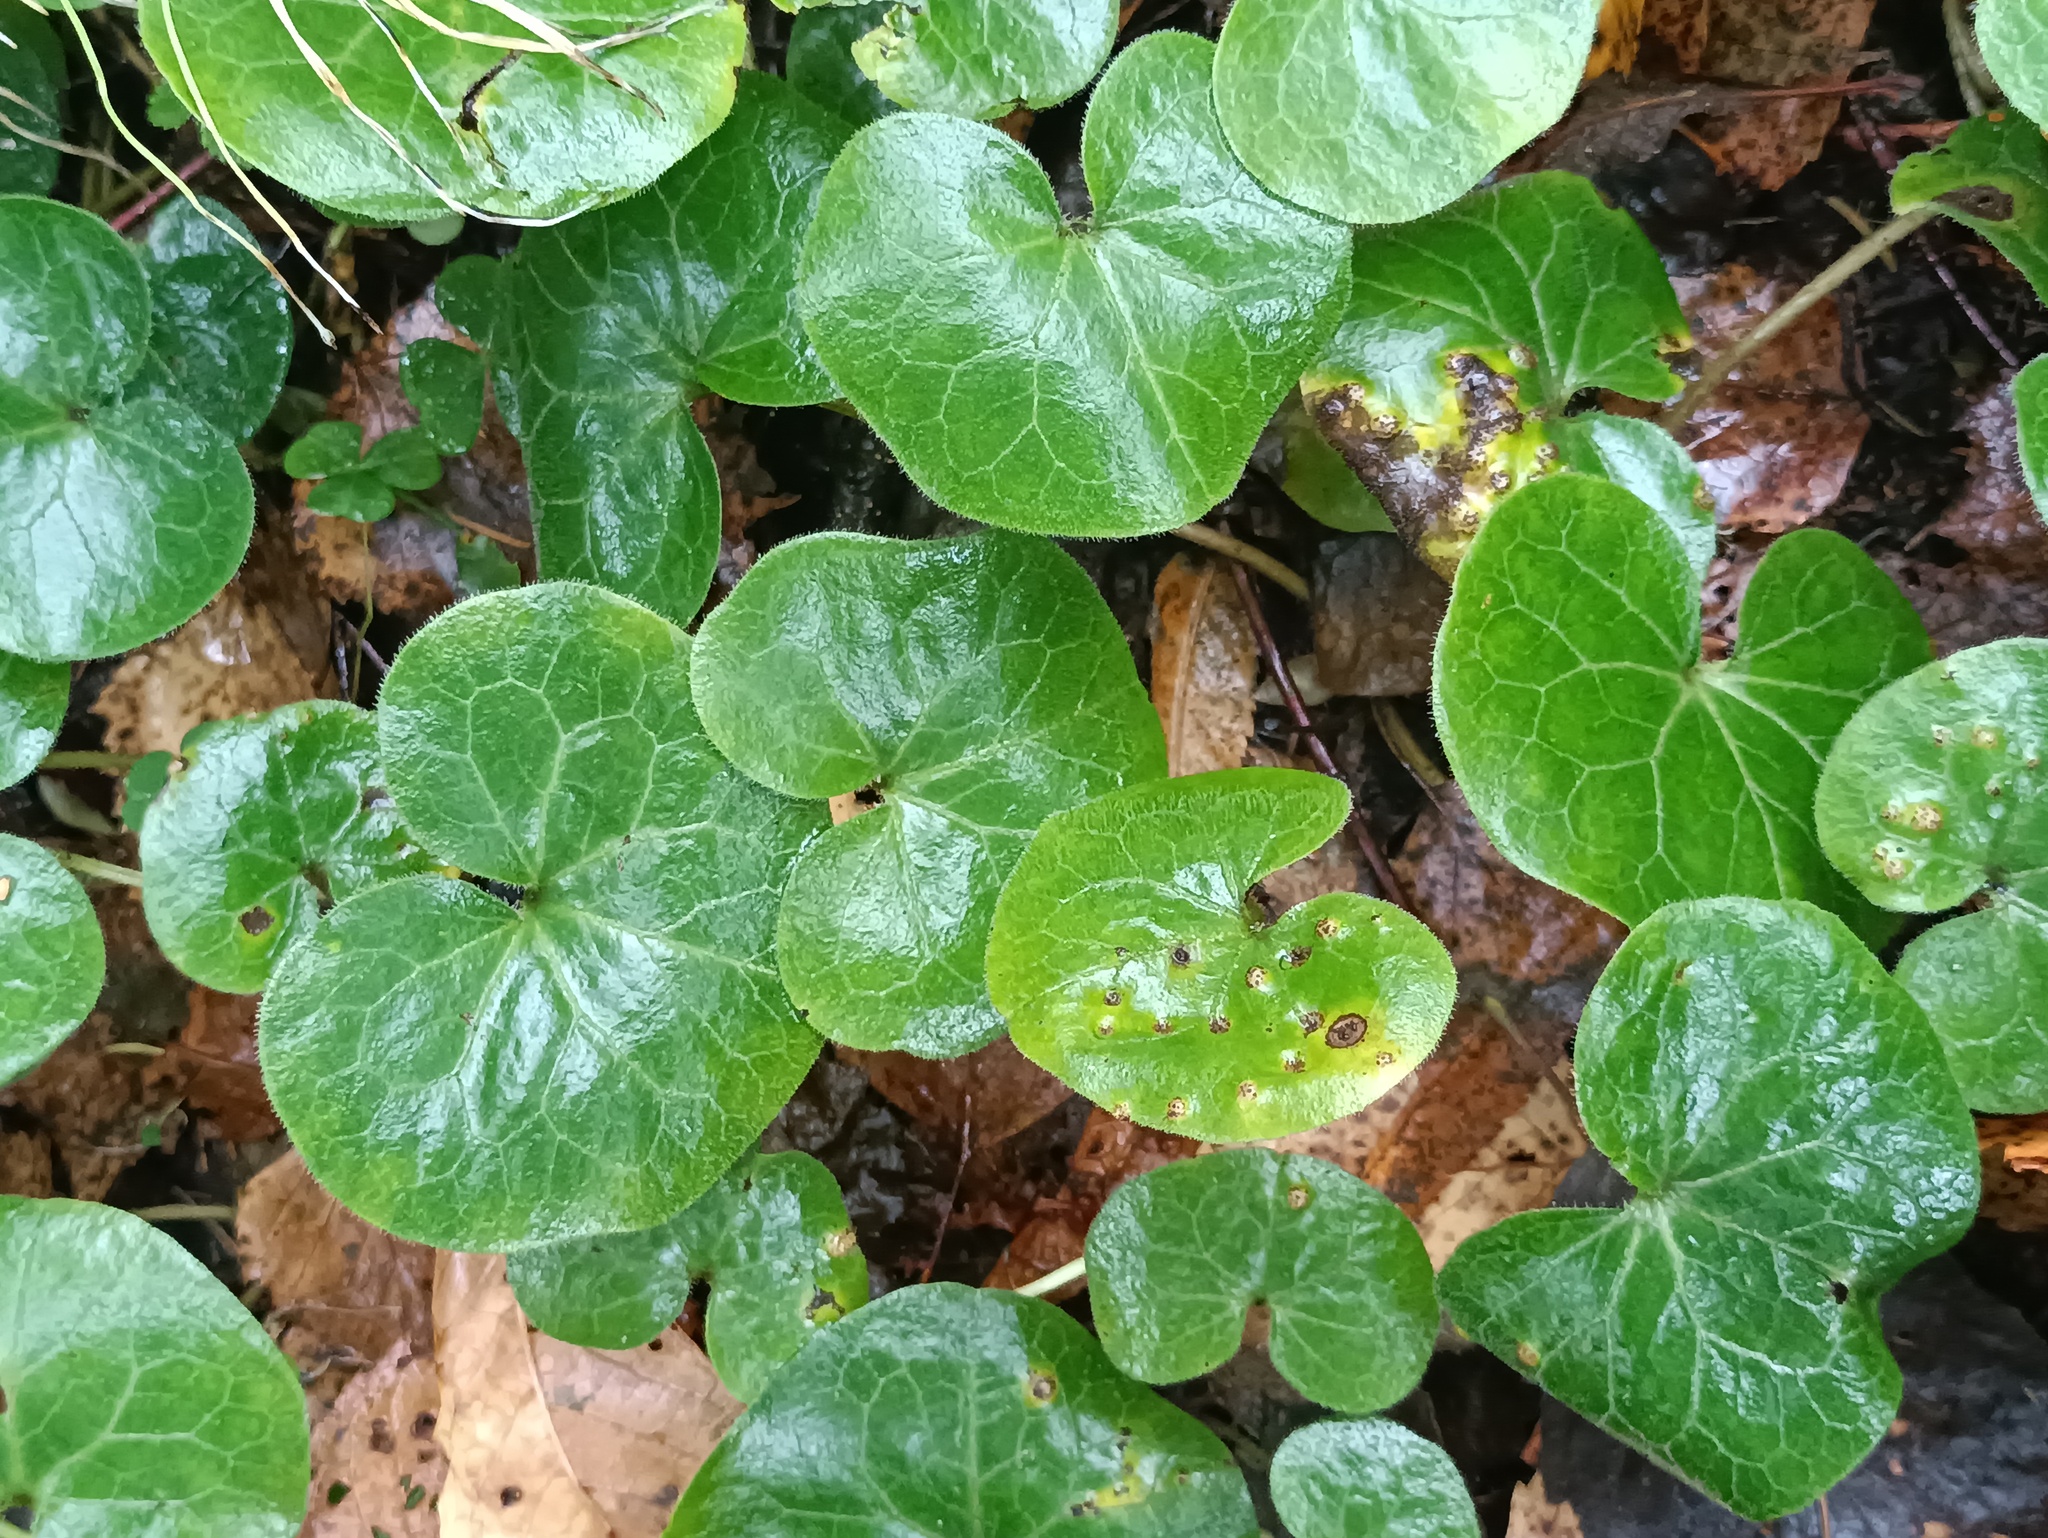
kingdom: Plantae
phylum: Tracheophyta
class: Magnoliopsida
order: Piperales
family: Aristolochiaceae
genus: Asarum
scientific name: Asarum europaeum
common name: Asarabacca
